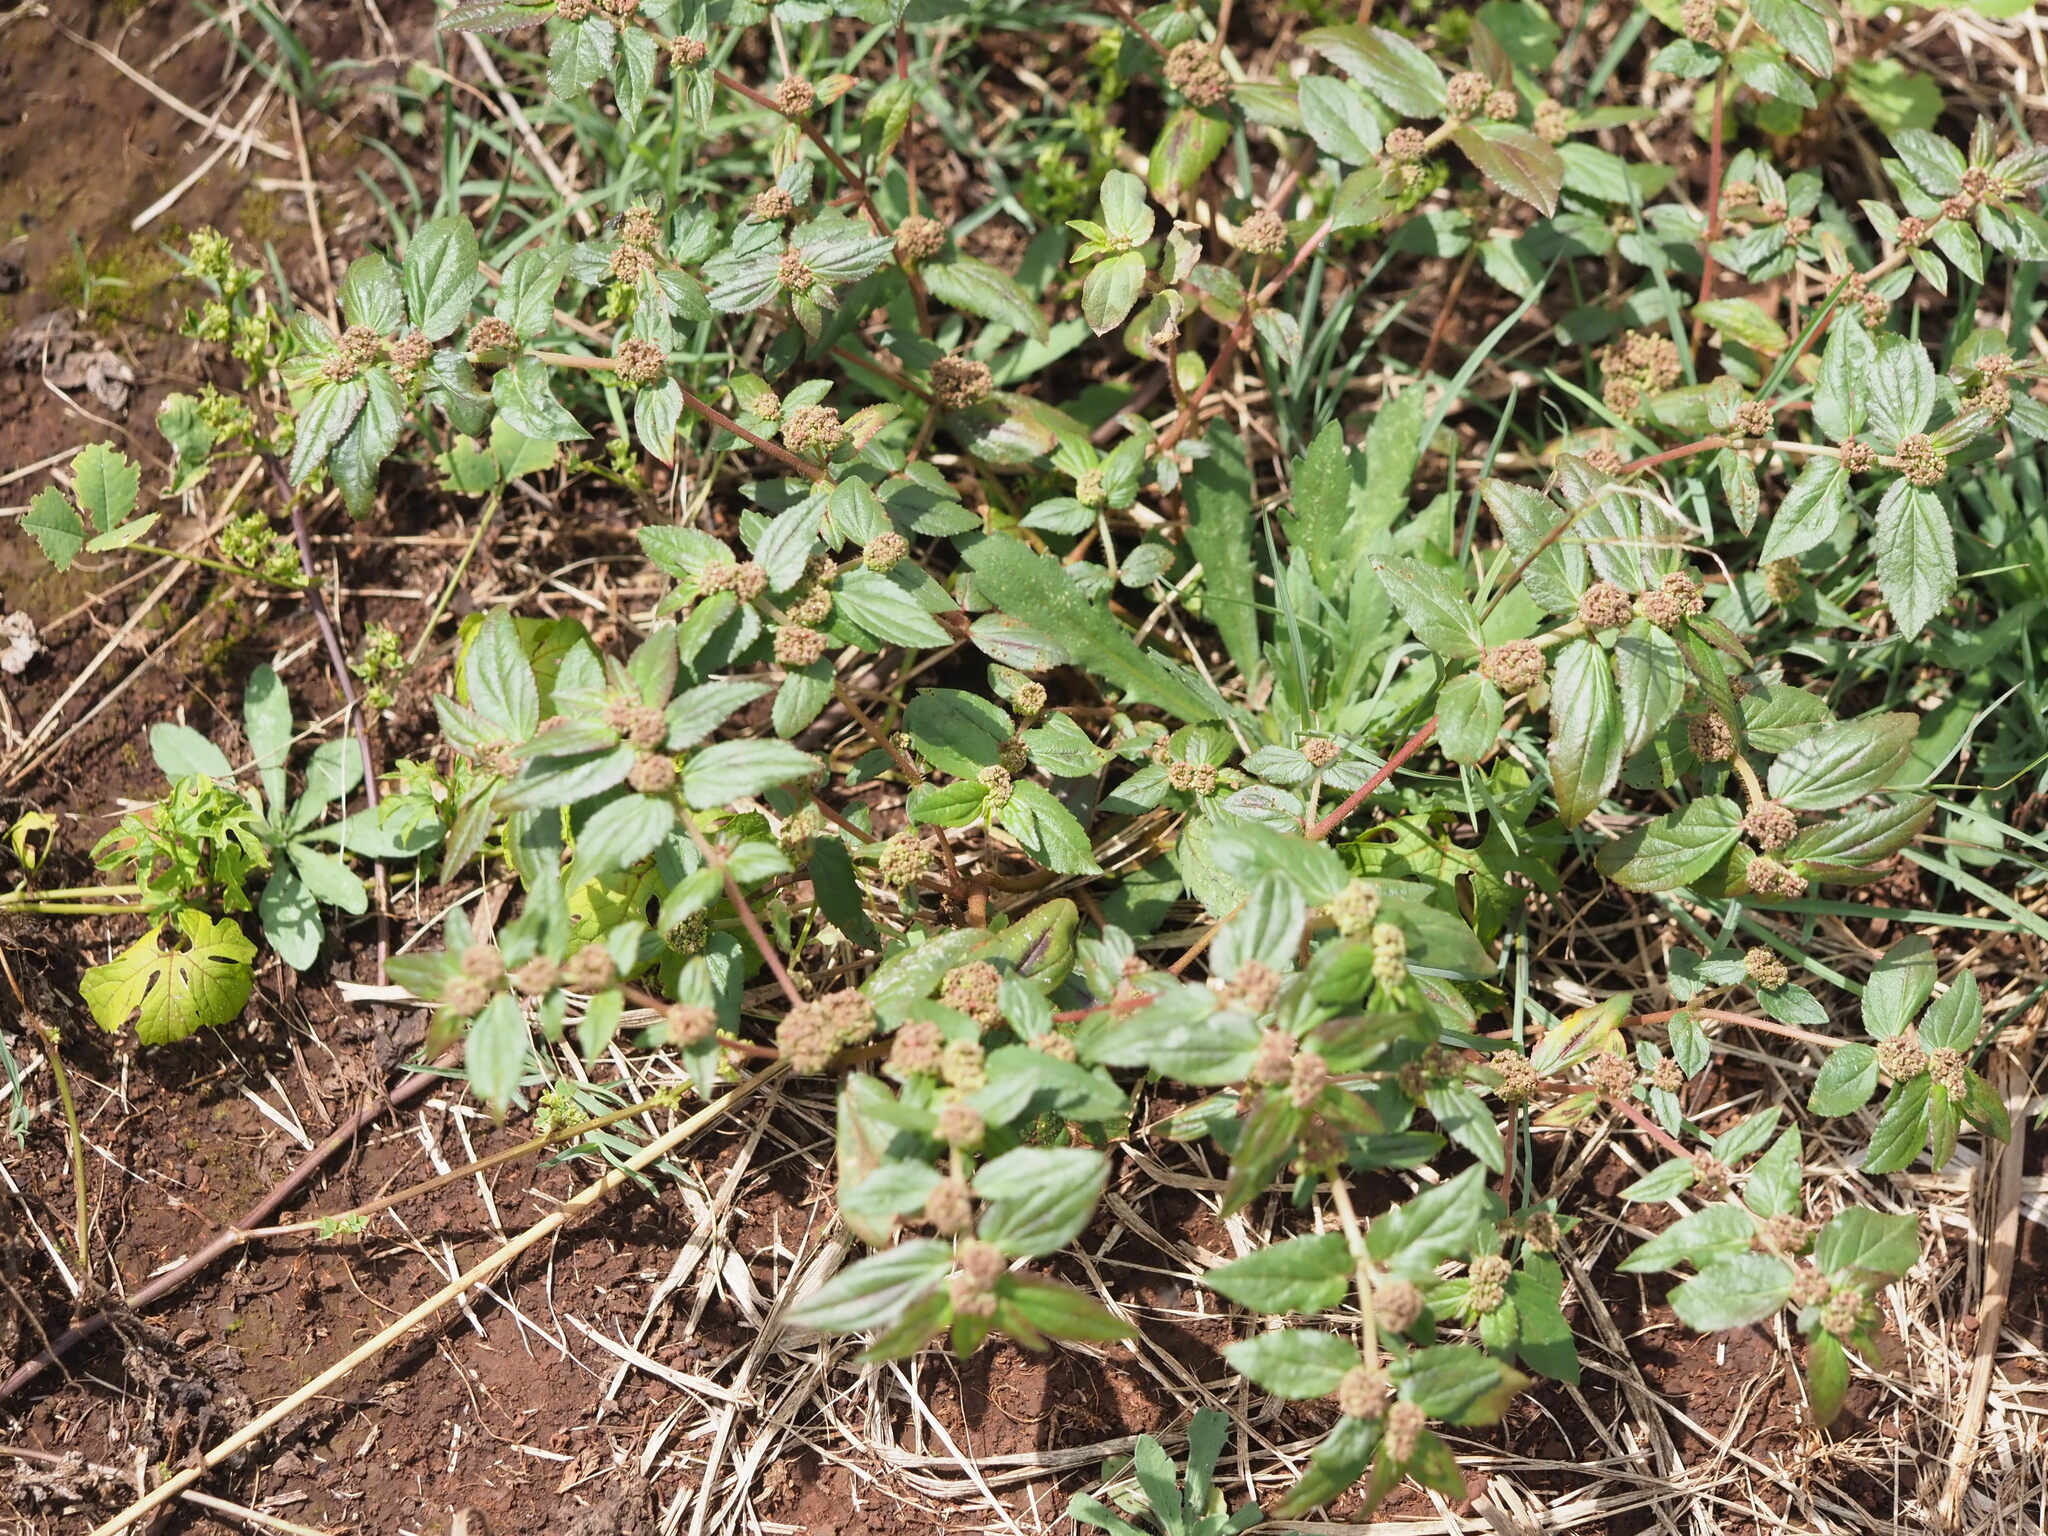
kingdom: Plantae
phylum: Tracheophyta
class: Magnoliopsida
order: Malpighiales
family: Euphorbiaceae
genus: Euphorbia
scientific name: Euphorbia hirta
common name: Pillpod sandmat
